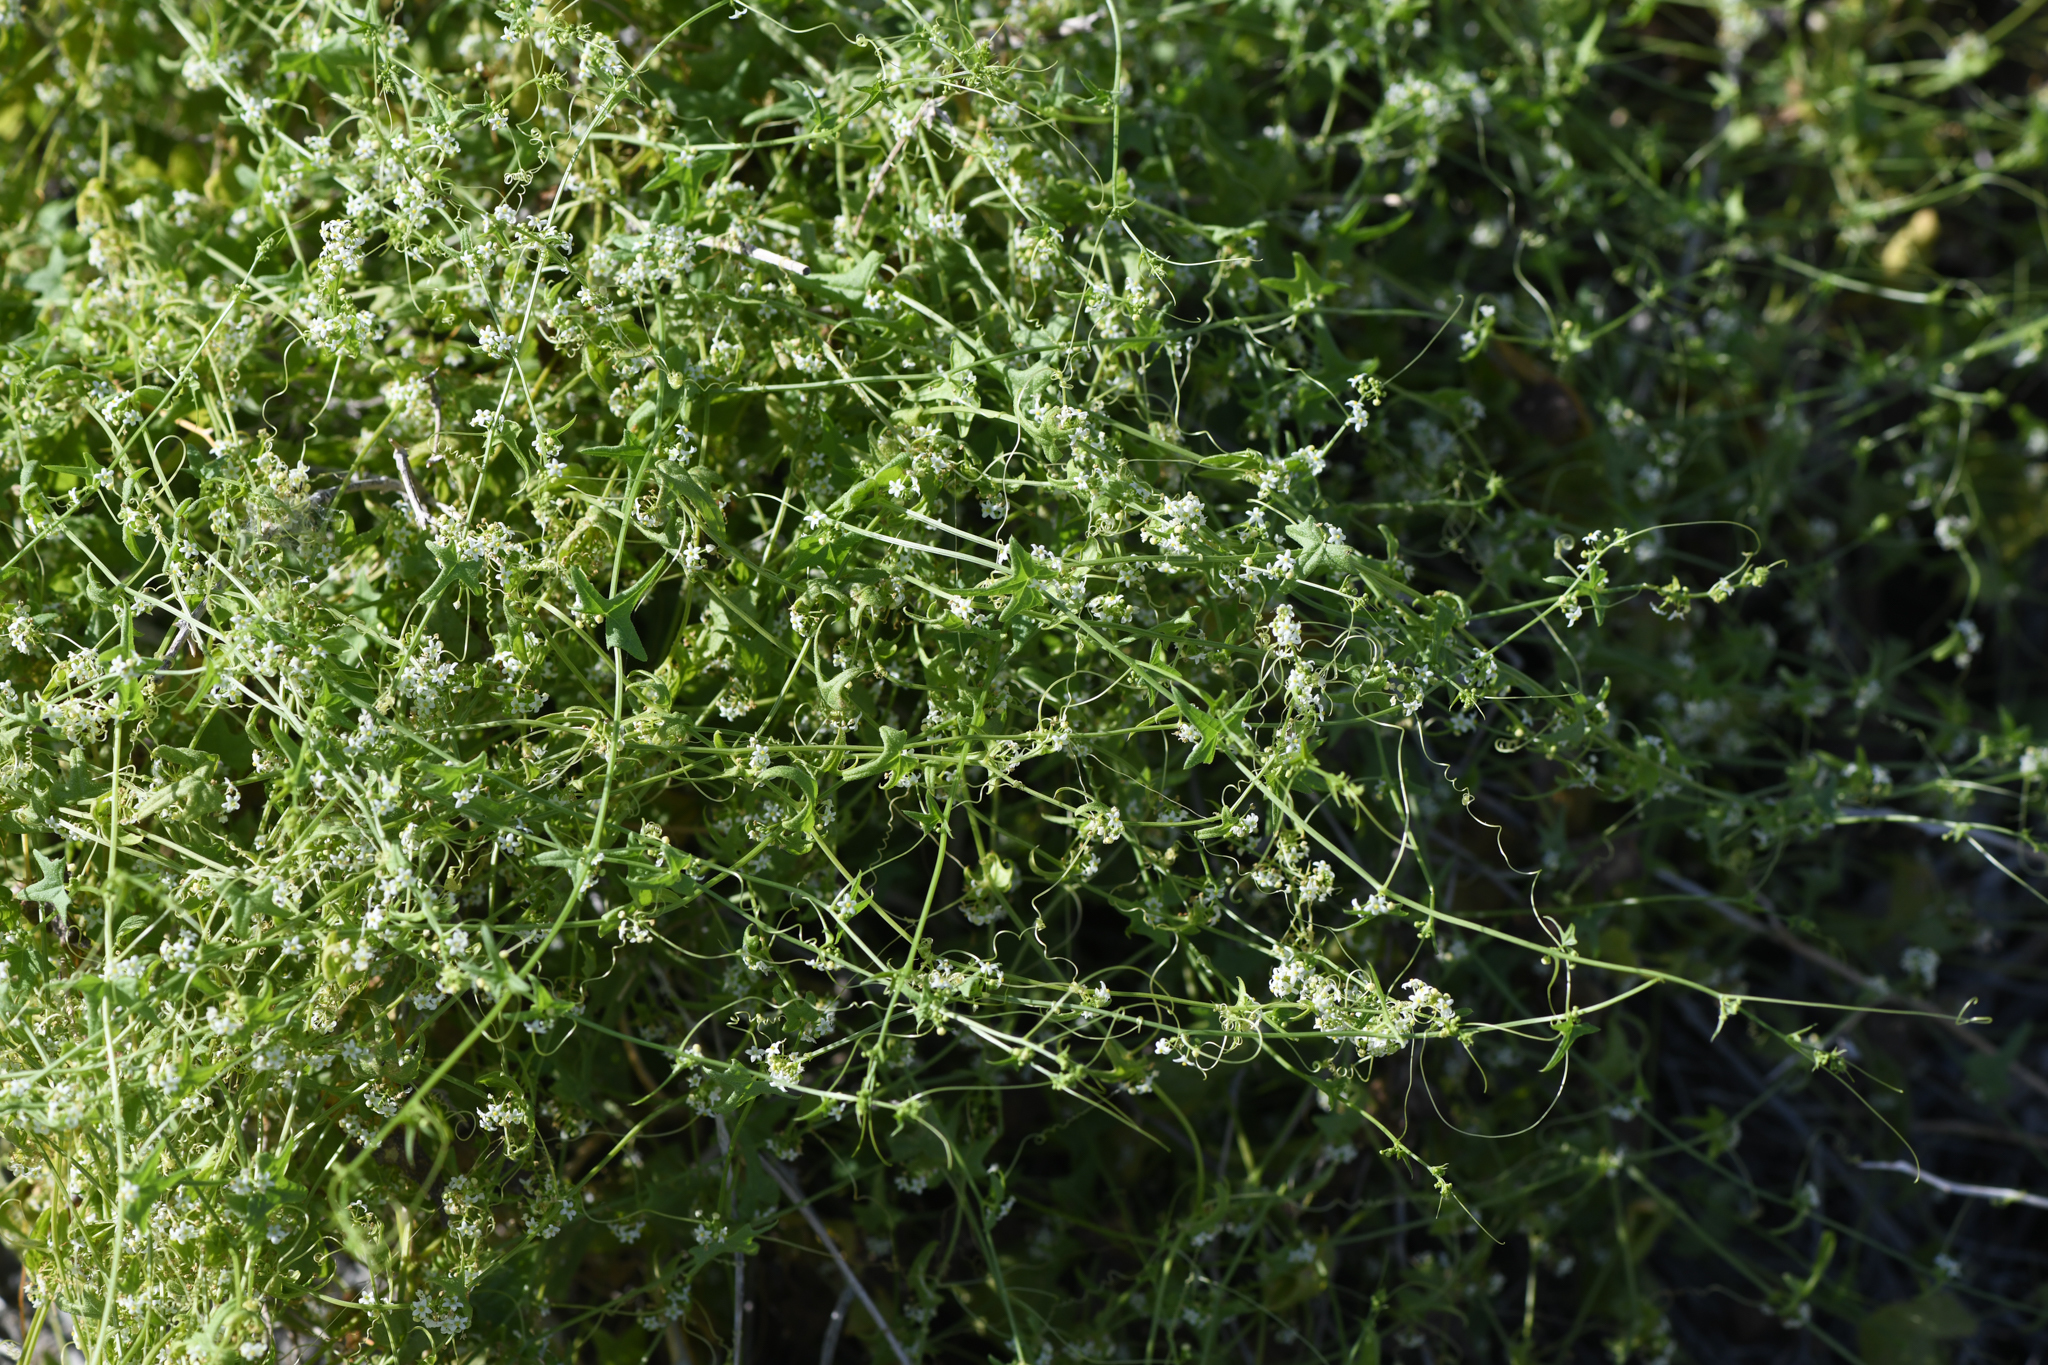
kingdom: Plantae
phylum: Tracheophyta
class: Magnoliopsida
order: Cucurbitales
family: Cucurbitaceae
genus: Echinopepon
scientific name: Echinopepon bigelovii
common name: Desert starvine
